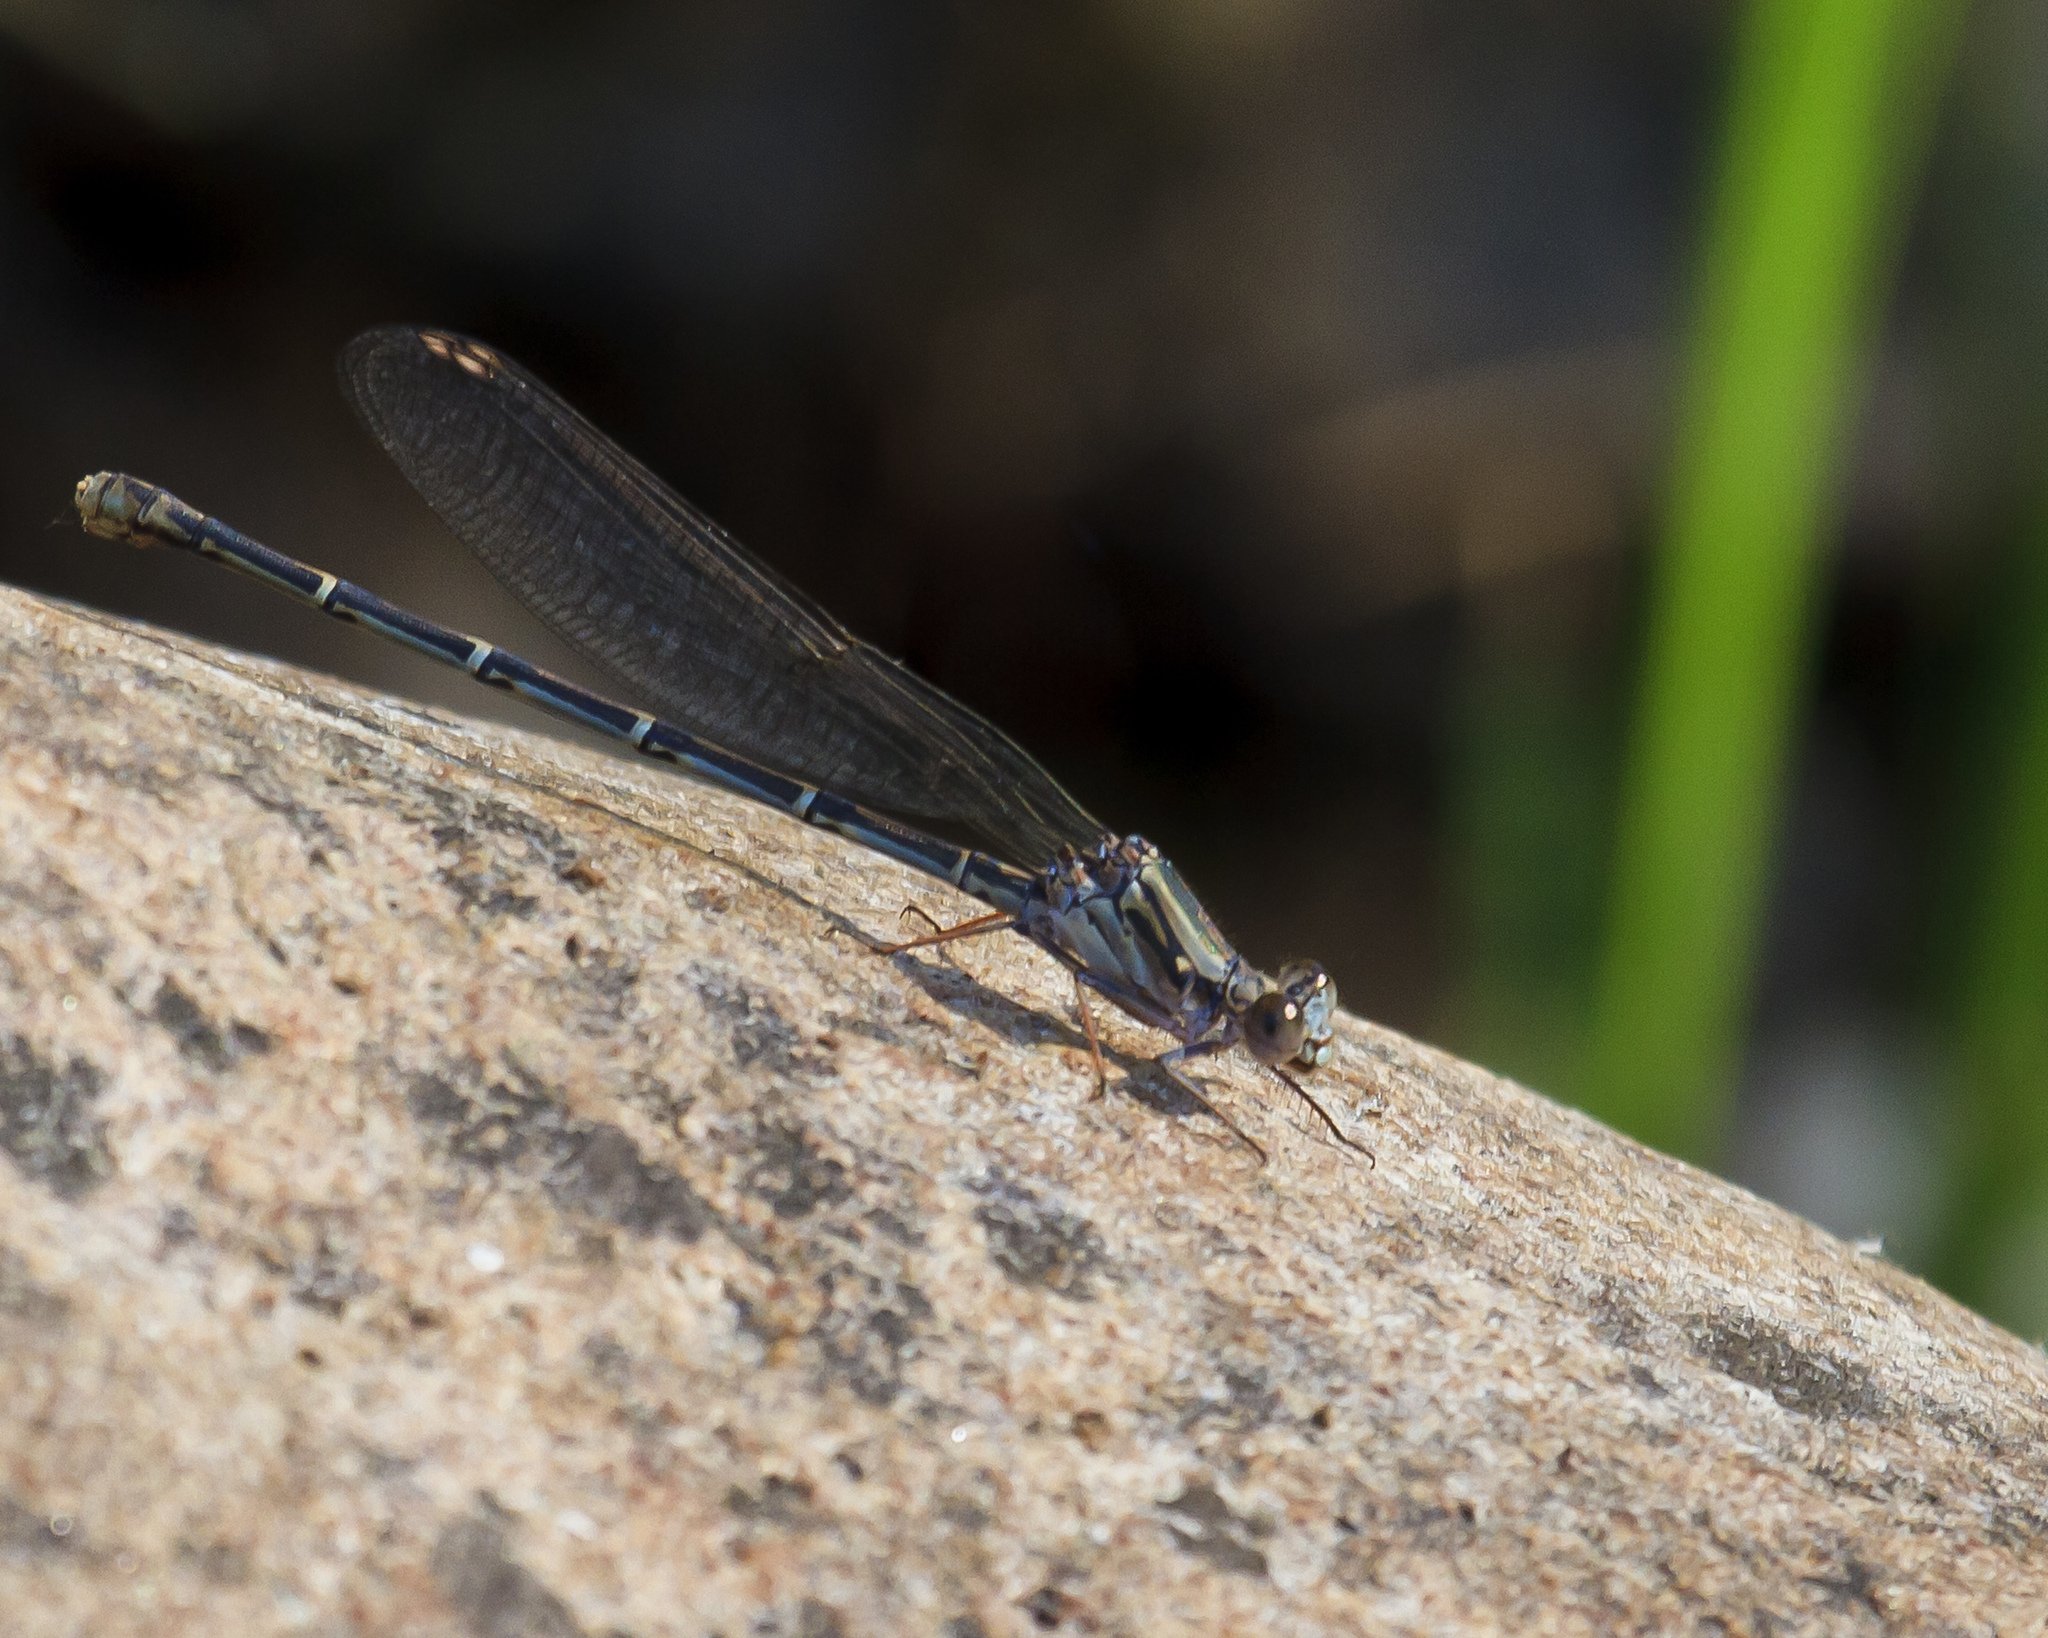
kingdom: Animalia
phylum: Arthropoda
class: Insecta
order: Odonata
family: Coenagrionidae
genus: Argia
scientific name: Argia lugens
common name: Sooty dancer
